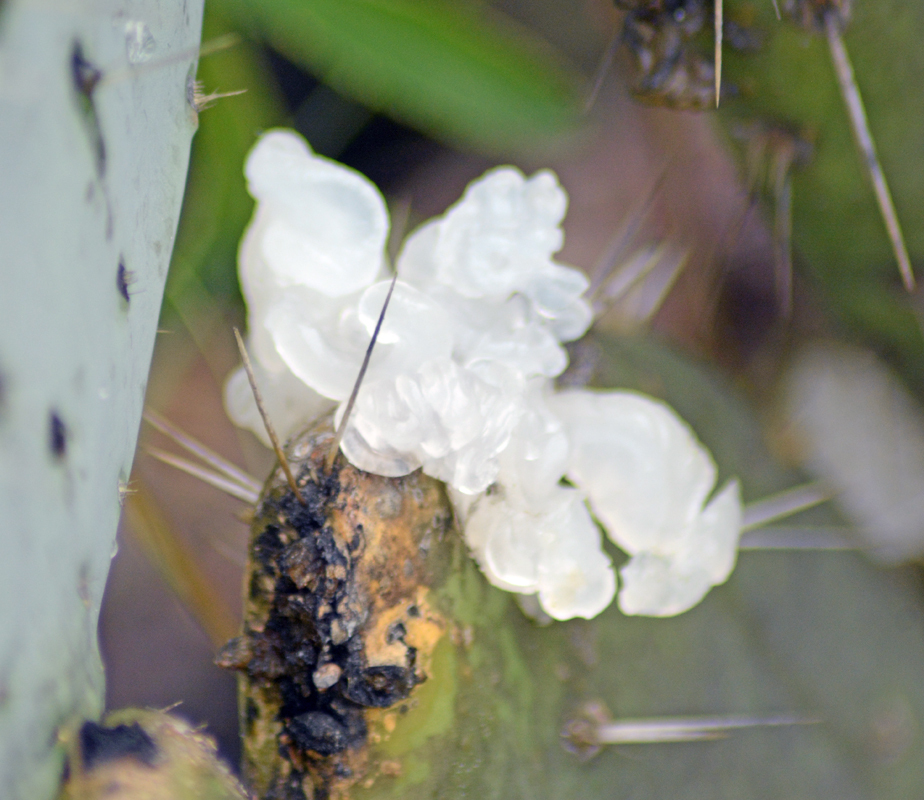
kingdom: Fungi
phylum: Basidiomycota
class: Tremellomycetes
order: Tremellales
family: Tremellaceae
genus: Tremella
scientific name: Tremella fuciformis
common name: Snow fungus
